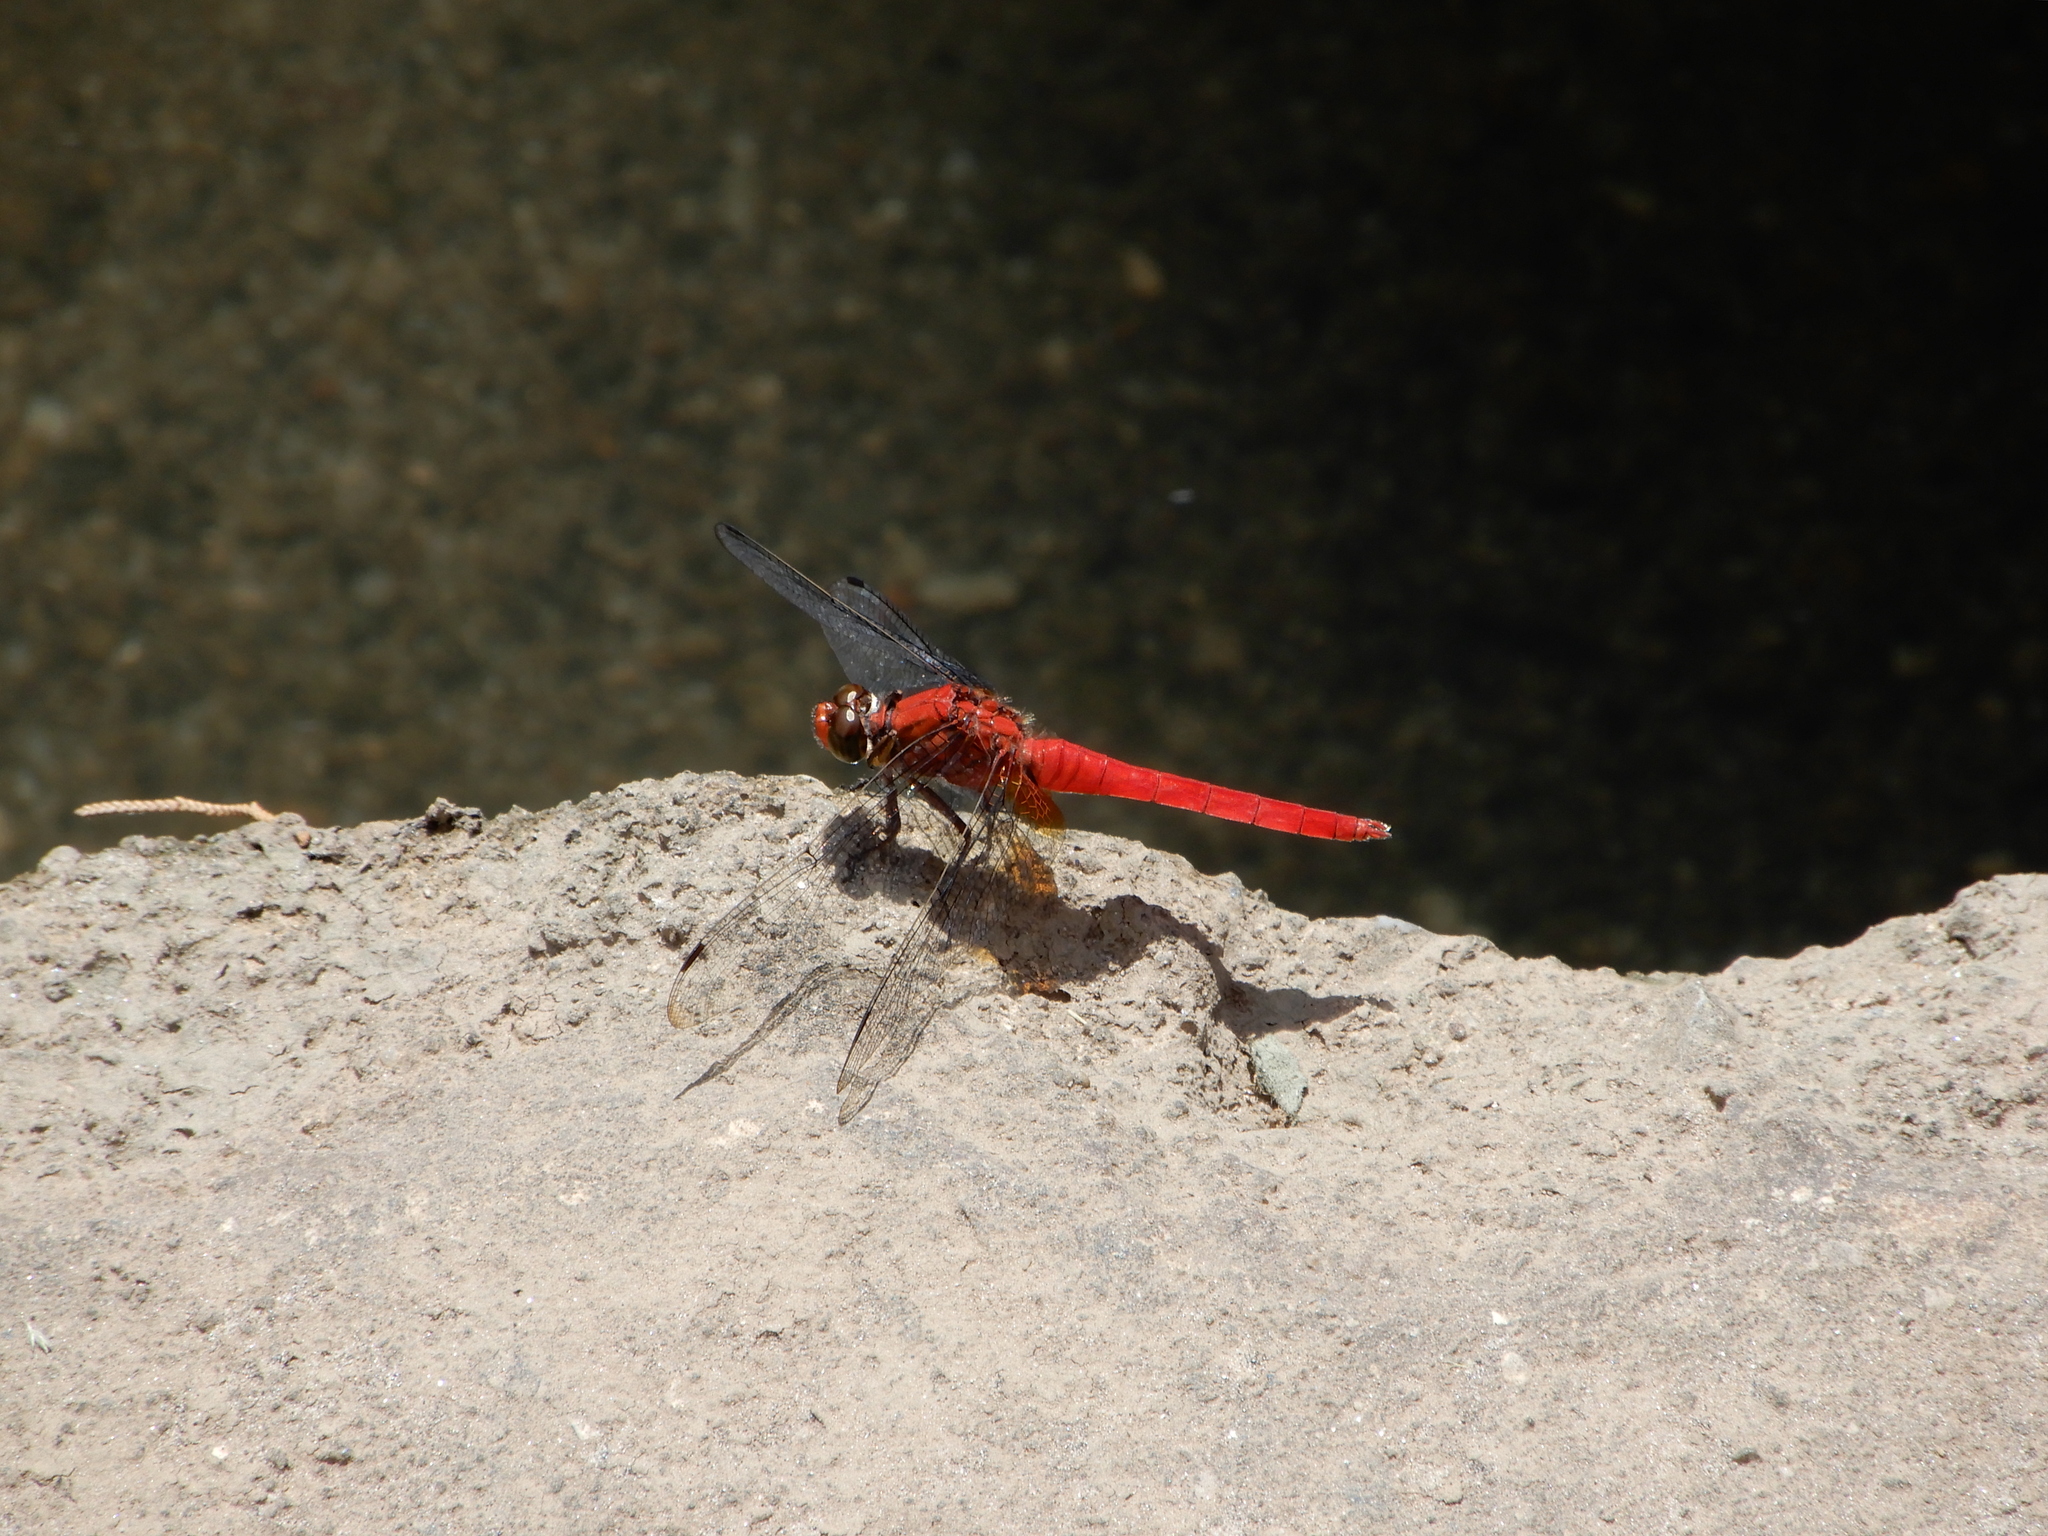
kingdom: Animalia
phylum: Arthropoda
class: Insecta
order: Odonata
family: Libellulidae
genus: Orthetrum
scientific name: Orthetrum testaceum
